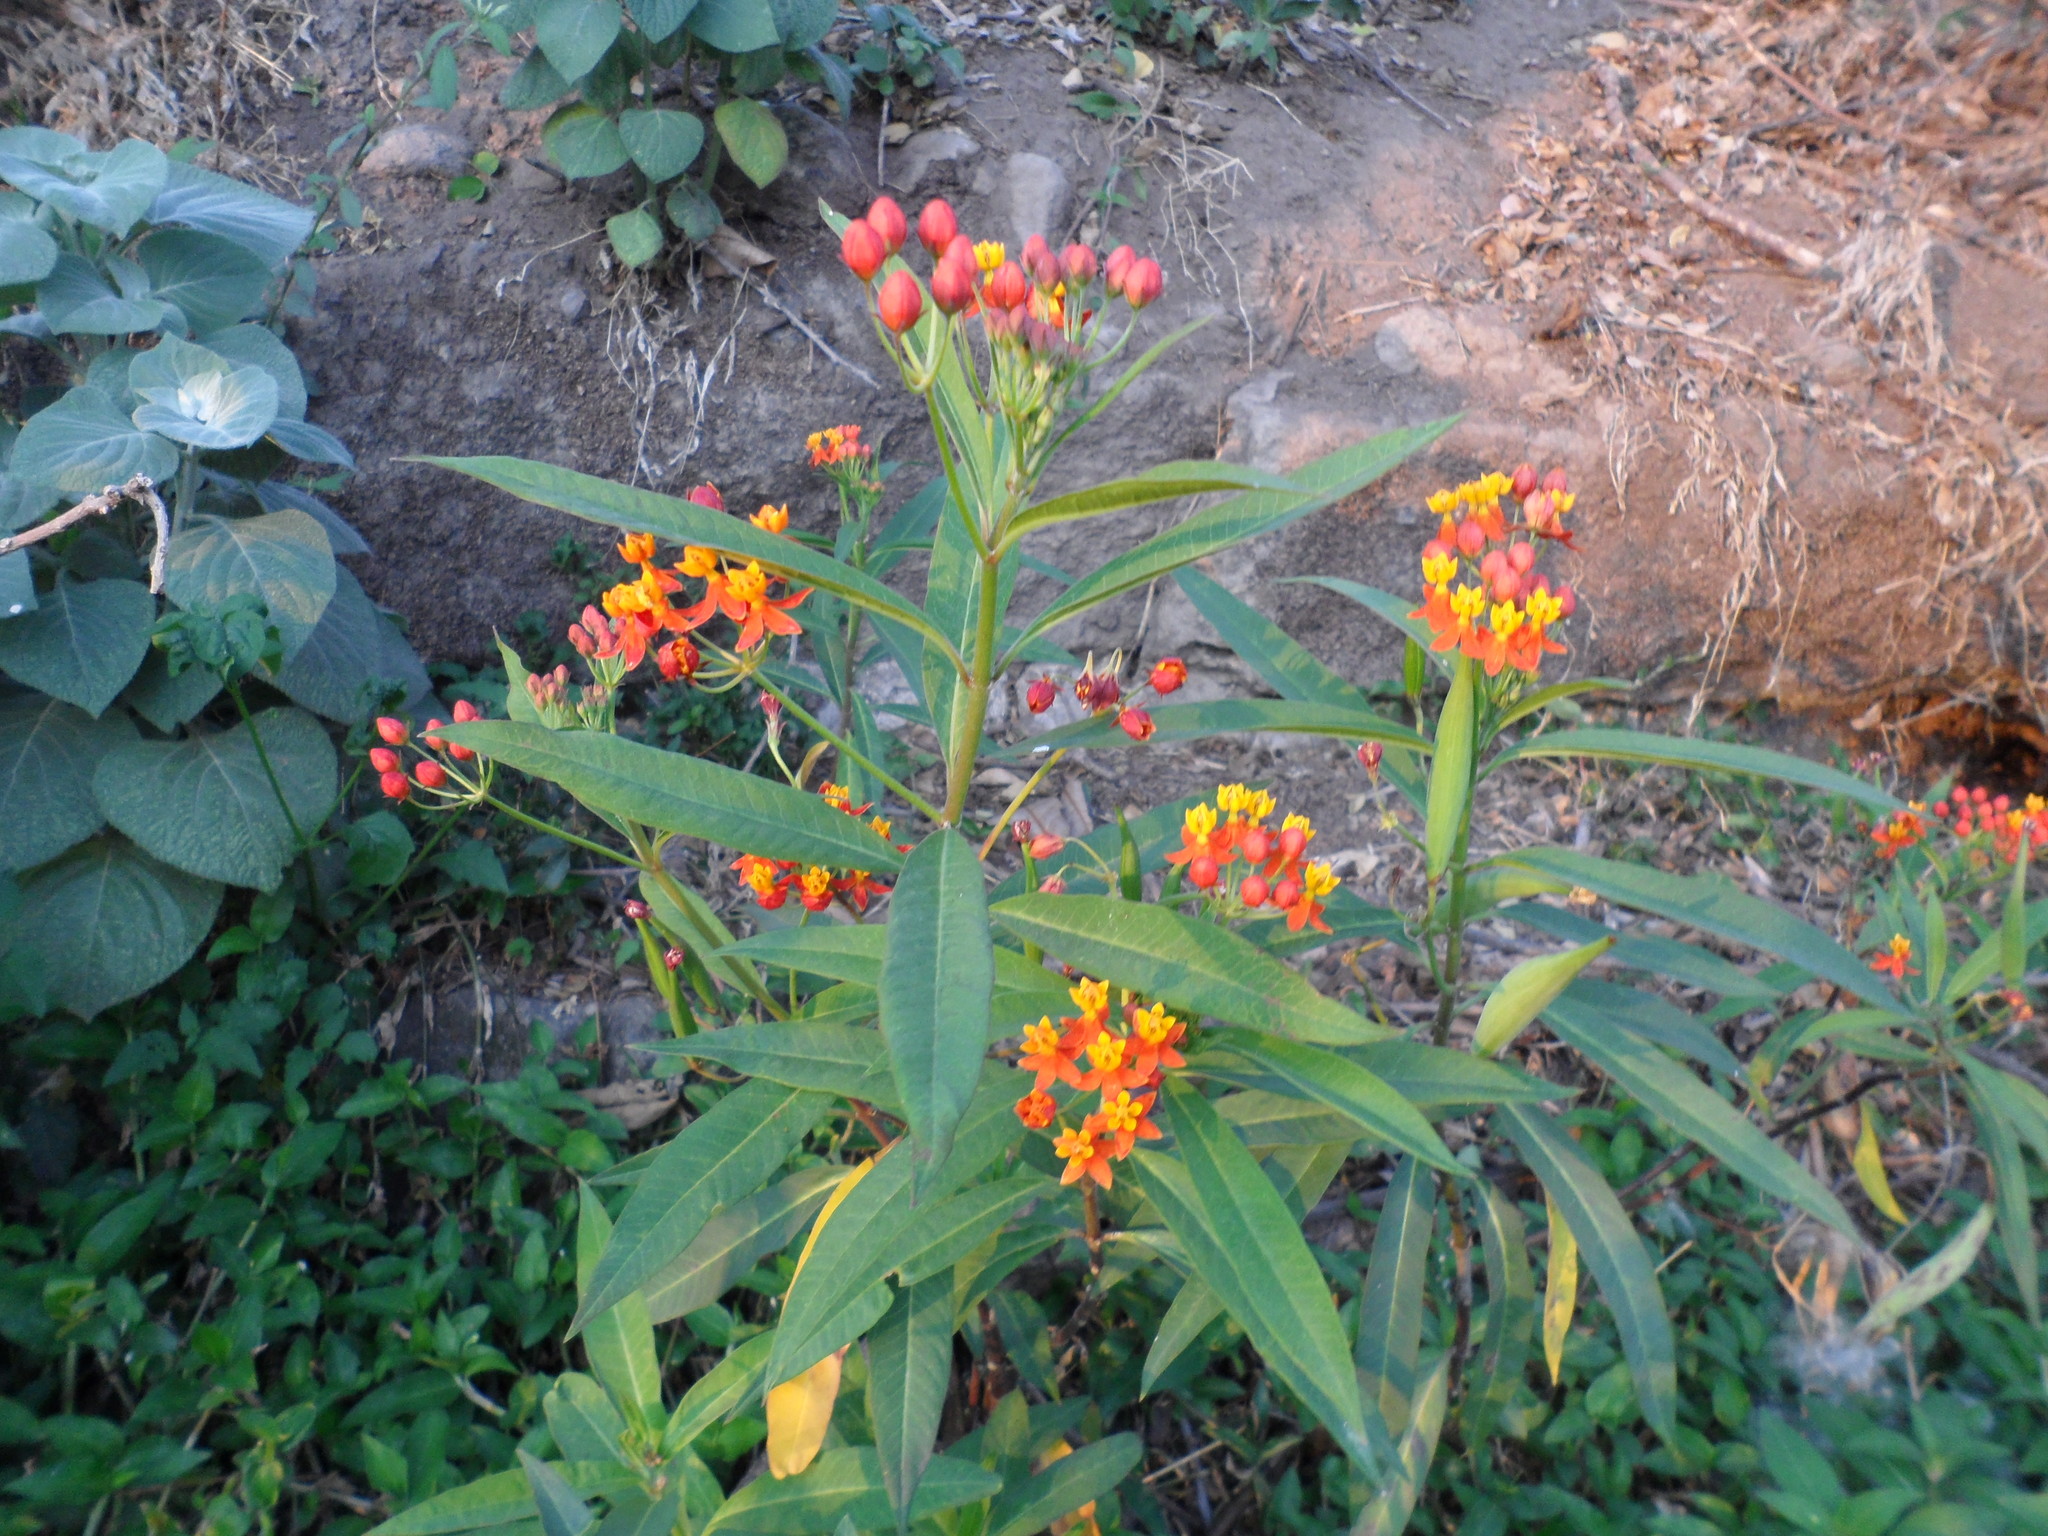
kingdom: Plantae
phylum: Tracheophyta
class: Magnoliopsida
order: Gentianales
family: Apocynaceae
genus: Asclepias
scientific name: Asclepias curassavica
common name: Bloodflower
